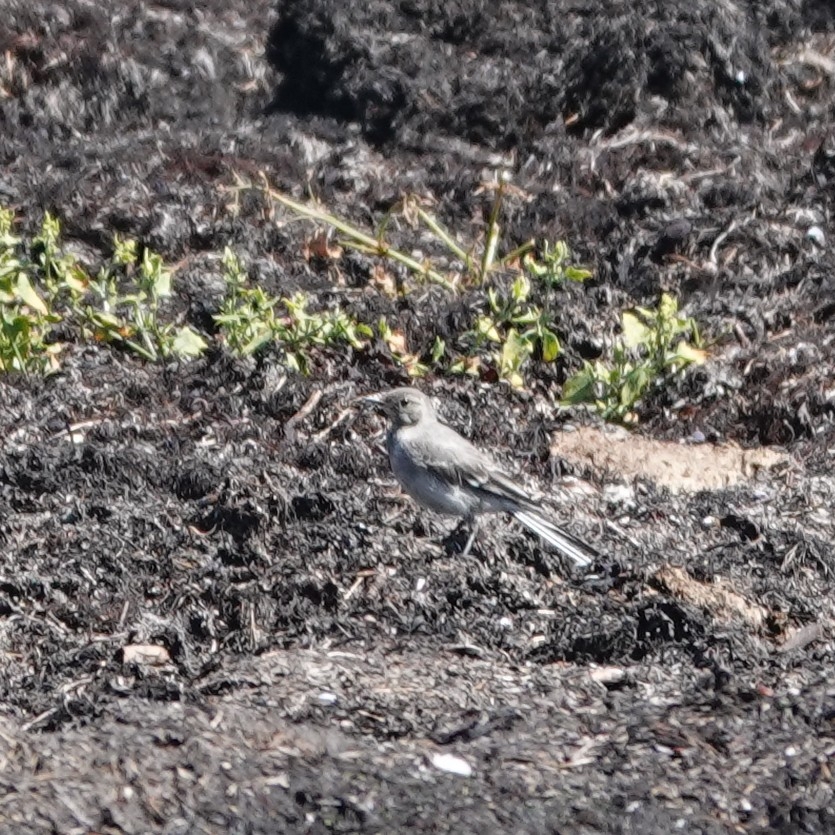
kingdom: Animalia
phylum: Chordata
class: Aves
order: Passeriformes
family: Motacillidae
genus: Motacilla
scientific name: Motacilla alba
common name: White wagtail
